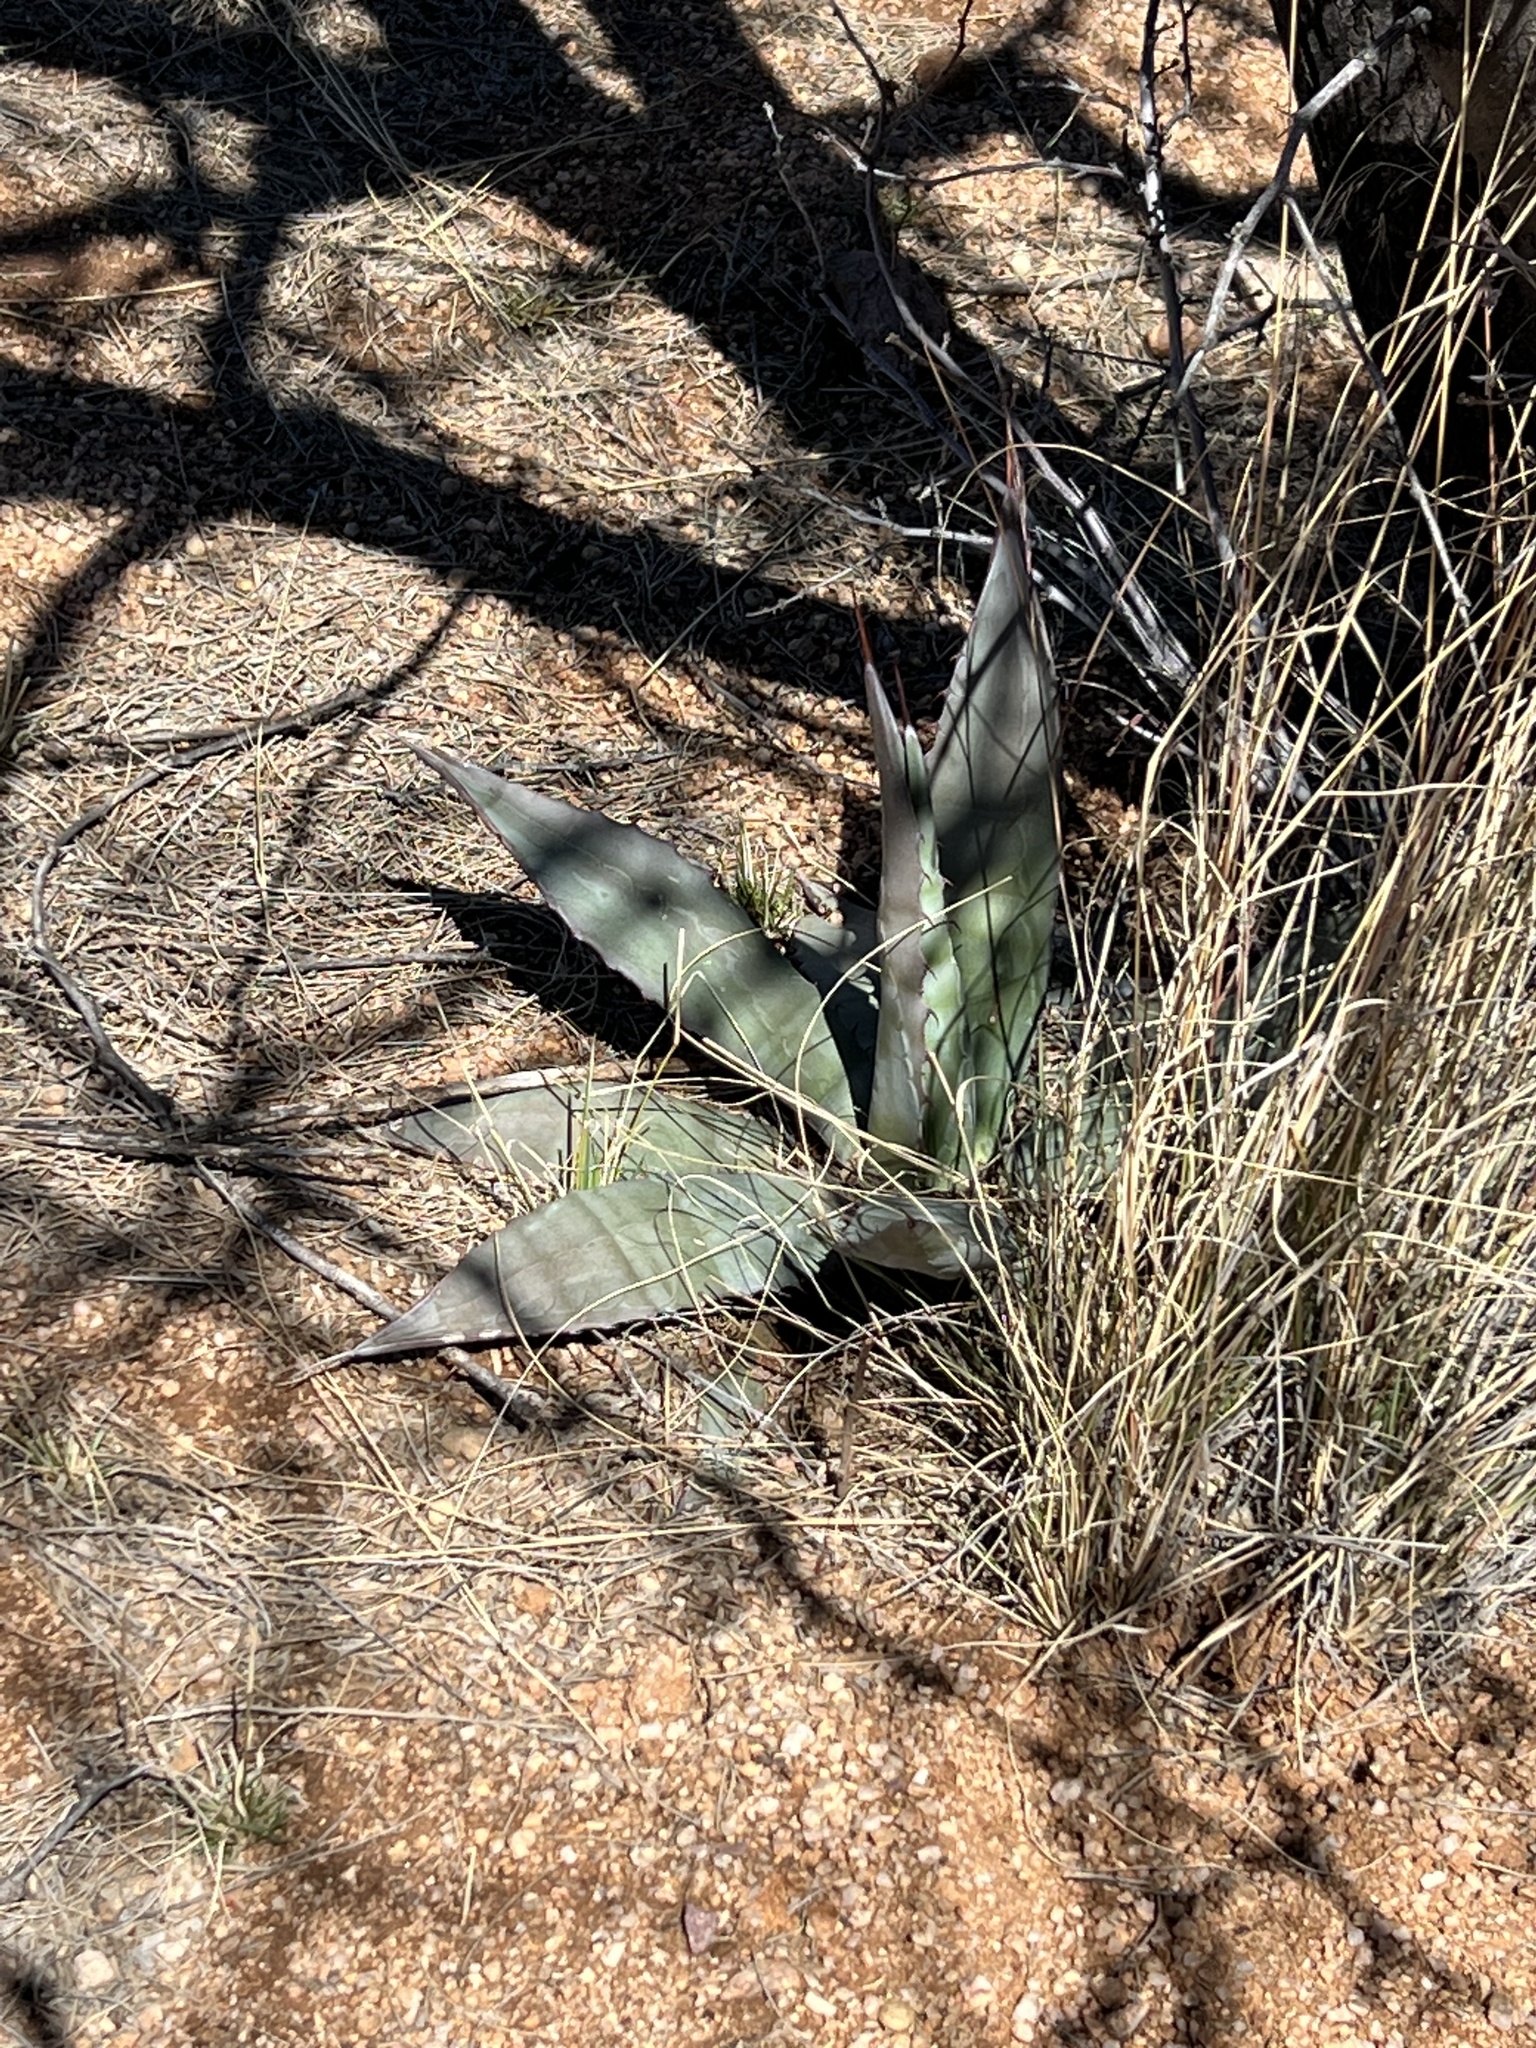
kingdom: Plantae
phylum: Tracheophyta
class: Liliopsida
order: Asparagales
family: Asparagaceae
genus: Agave
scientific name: Agave palmeri
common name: Palmer agave
